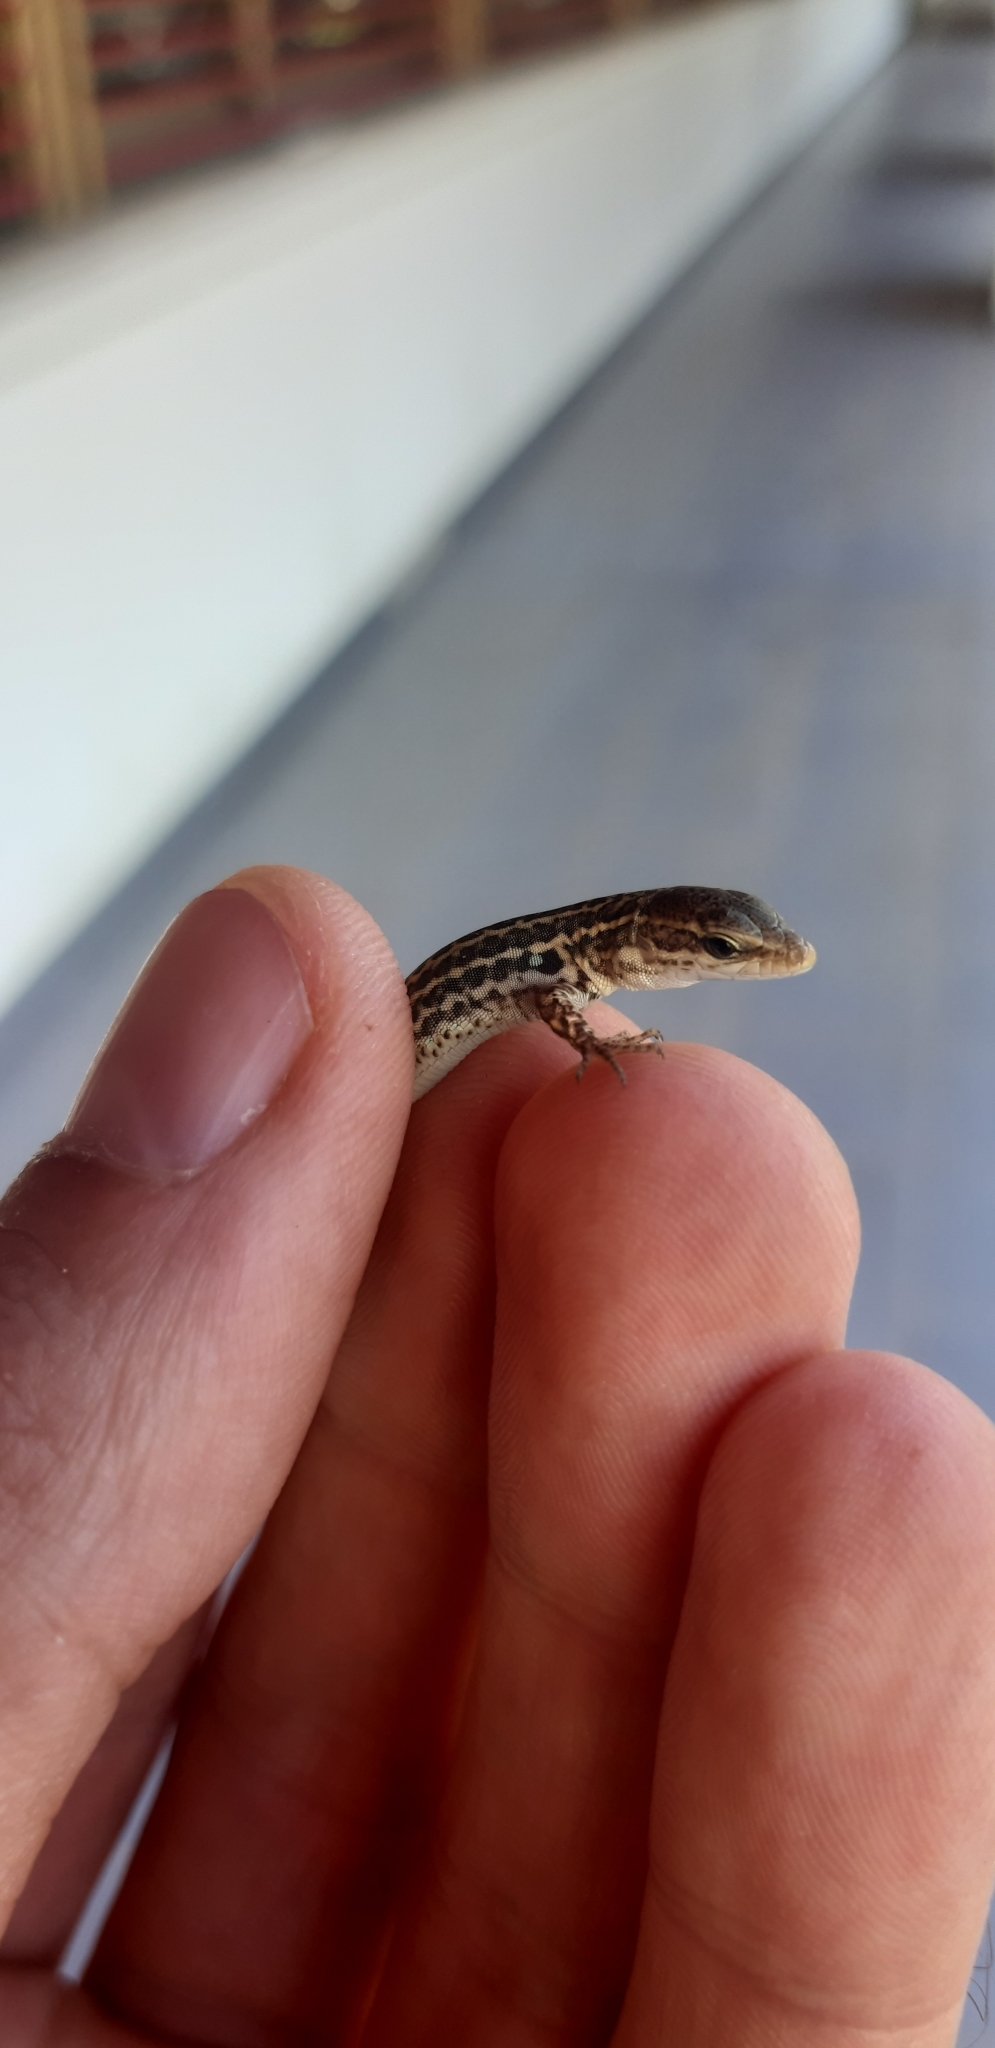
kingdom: Animalia
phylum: Chordata
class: Squamata
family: Lacertidae
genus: Podarcis
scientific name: Podarcis siculus
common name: Italian wall lizard
